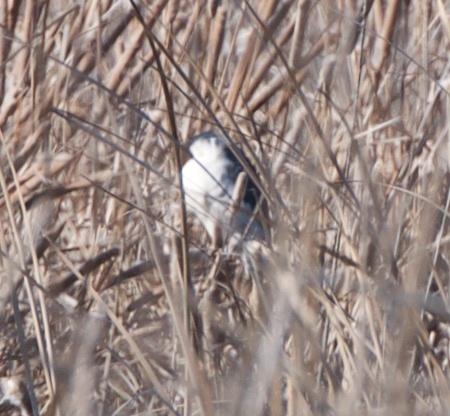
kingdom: Animalia
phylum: Chordata
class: Aves
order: Pelecaniformes
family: Ardeidae
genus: Nycticorax
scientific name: Nycticorax nycticorax
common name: Black-crowned night heron
